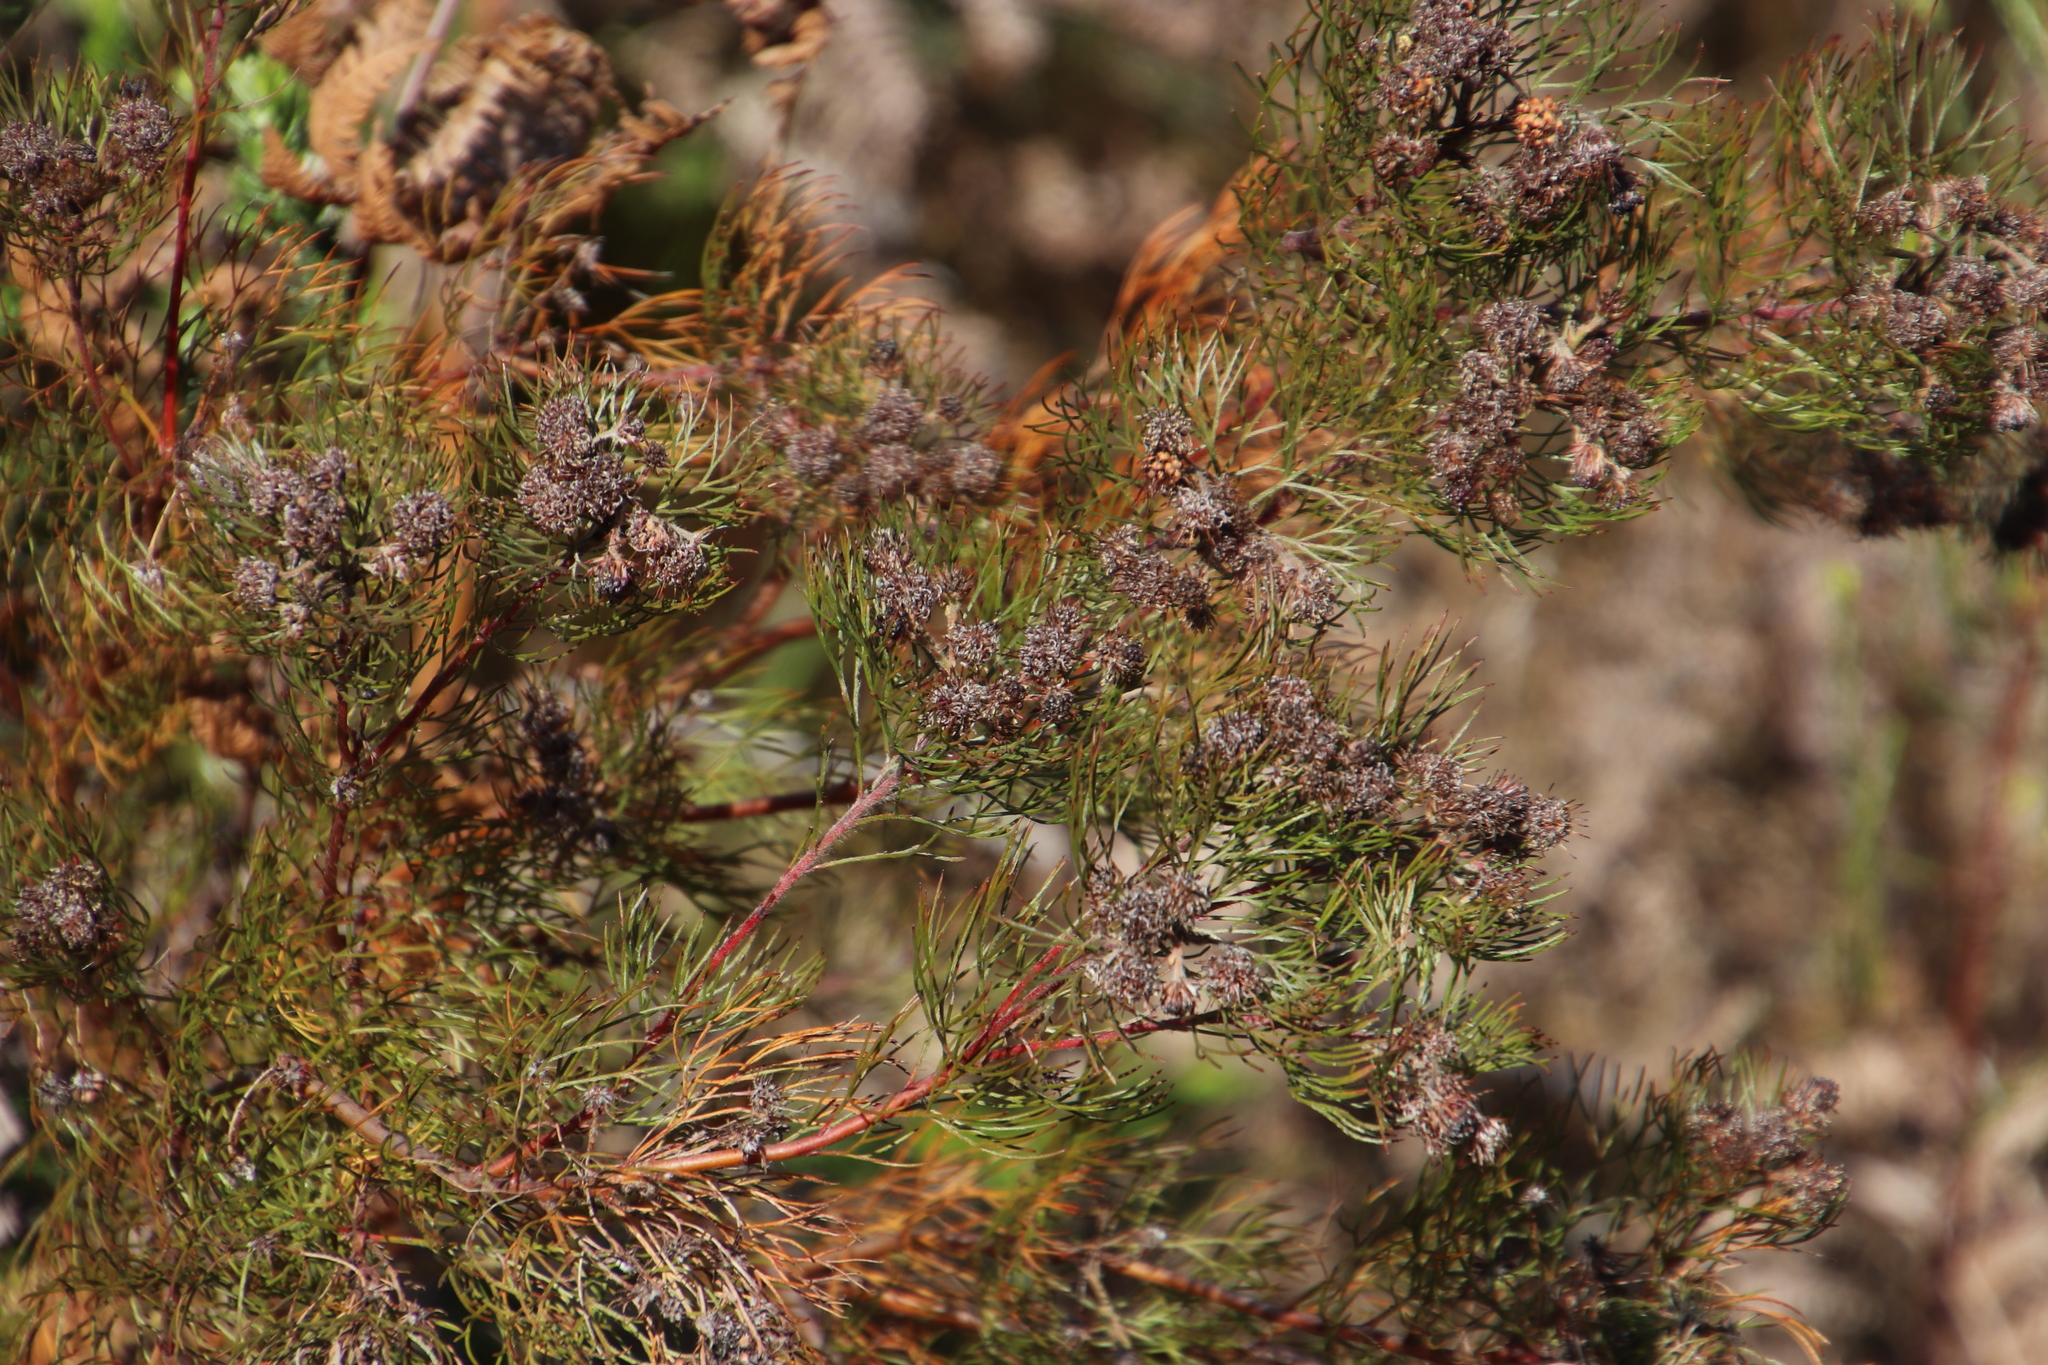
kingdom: Plantae
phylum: Tracheophyta
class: Magnoliopsida
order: Proteales
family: Proteaceae
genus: Serruria
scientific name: Serruria fasciflora
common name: Common pin spiderhead
